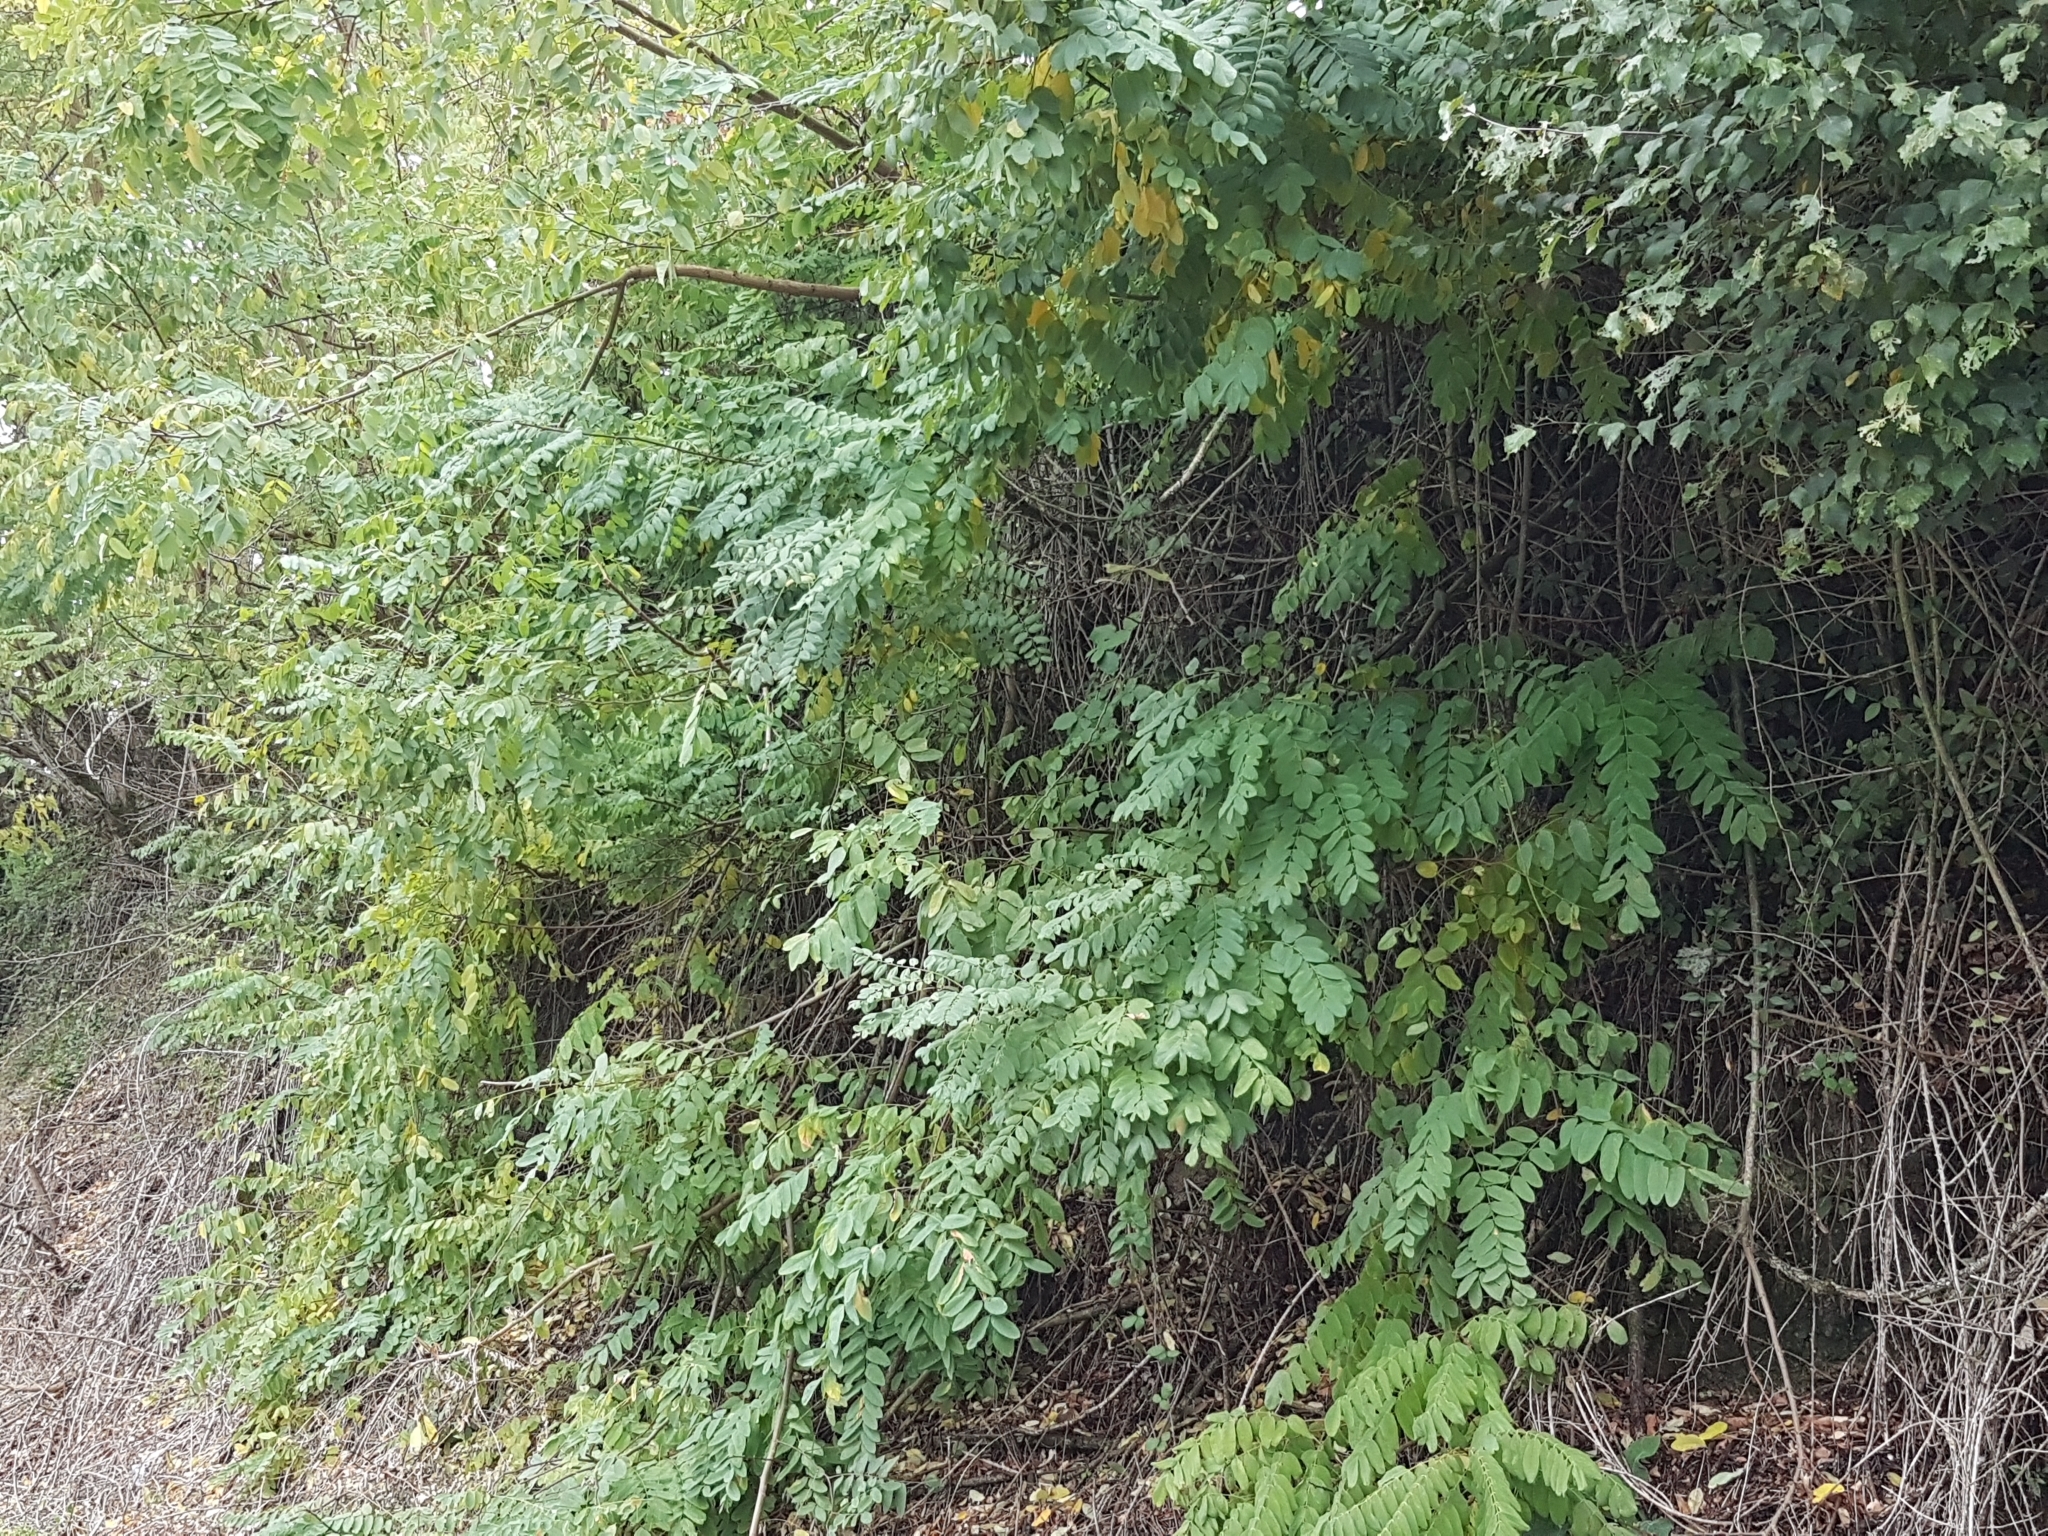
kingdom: Plantae
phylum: Tracheophyta
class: Magnoliopsida
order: Fabales
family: Fabaceae
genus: Robinia
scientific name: Robinia pseudoacacia
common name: Black locust
